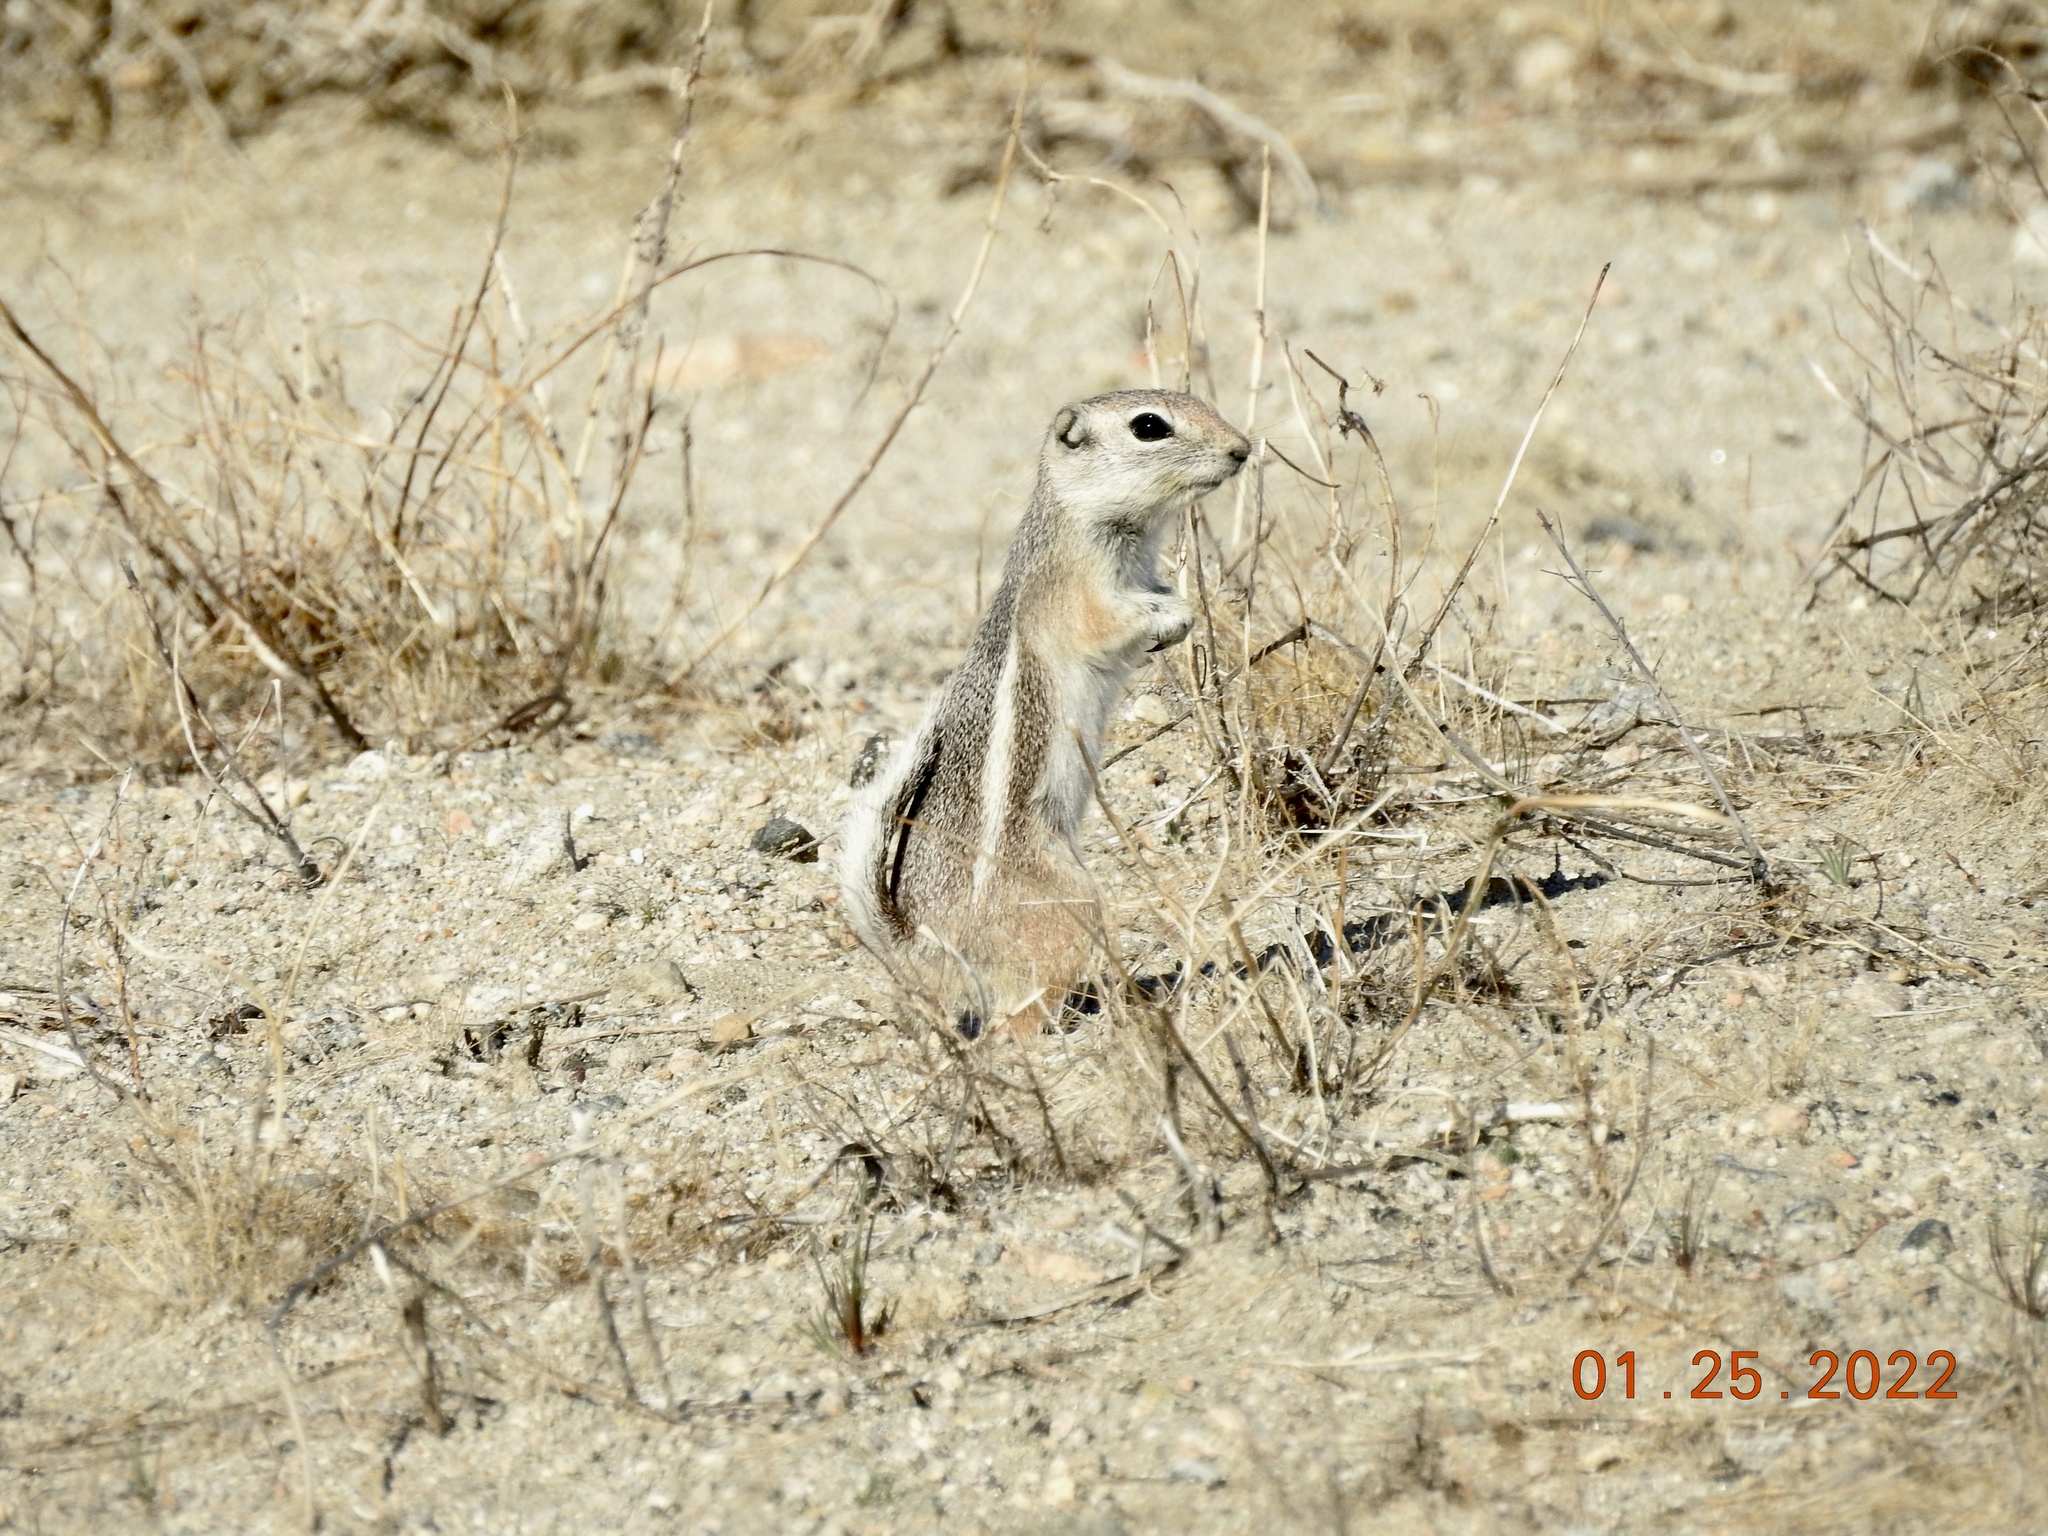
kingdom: Animalia
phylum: Chordata
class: Mammalia
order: Rodentia
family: Sciuridae
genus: Ammospermophilus
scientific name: Ammospermophilus leucurus
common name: White-tailed antelope squirrel
